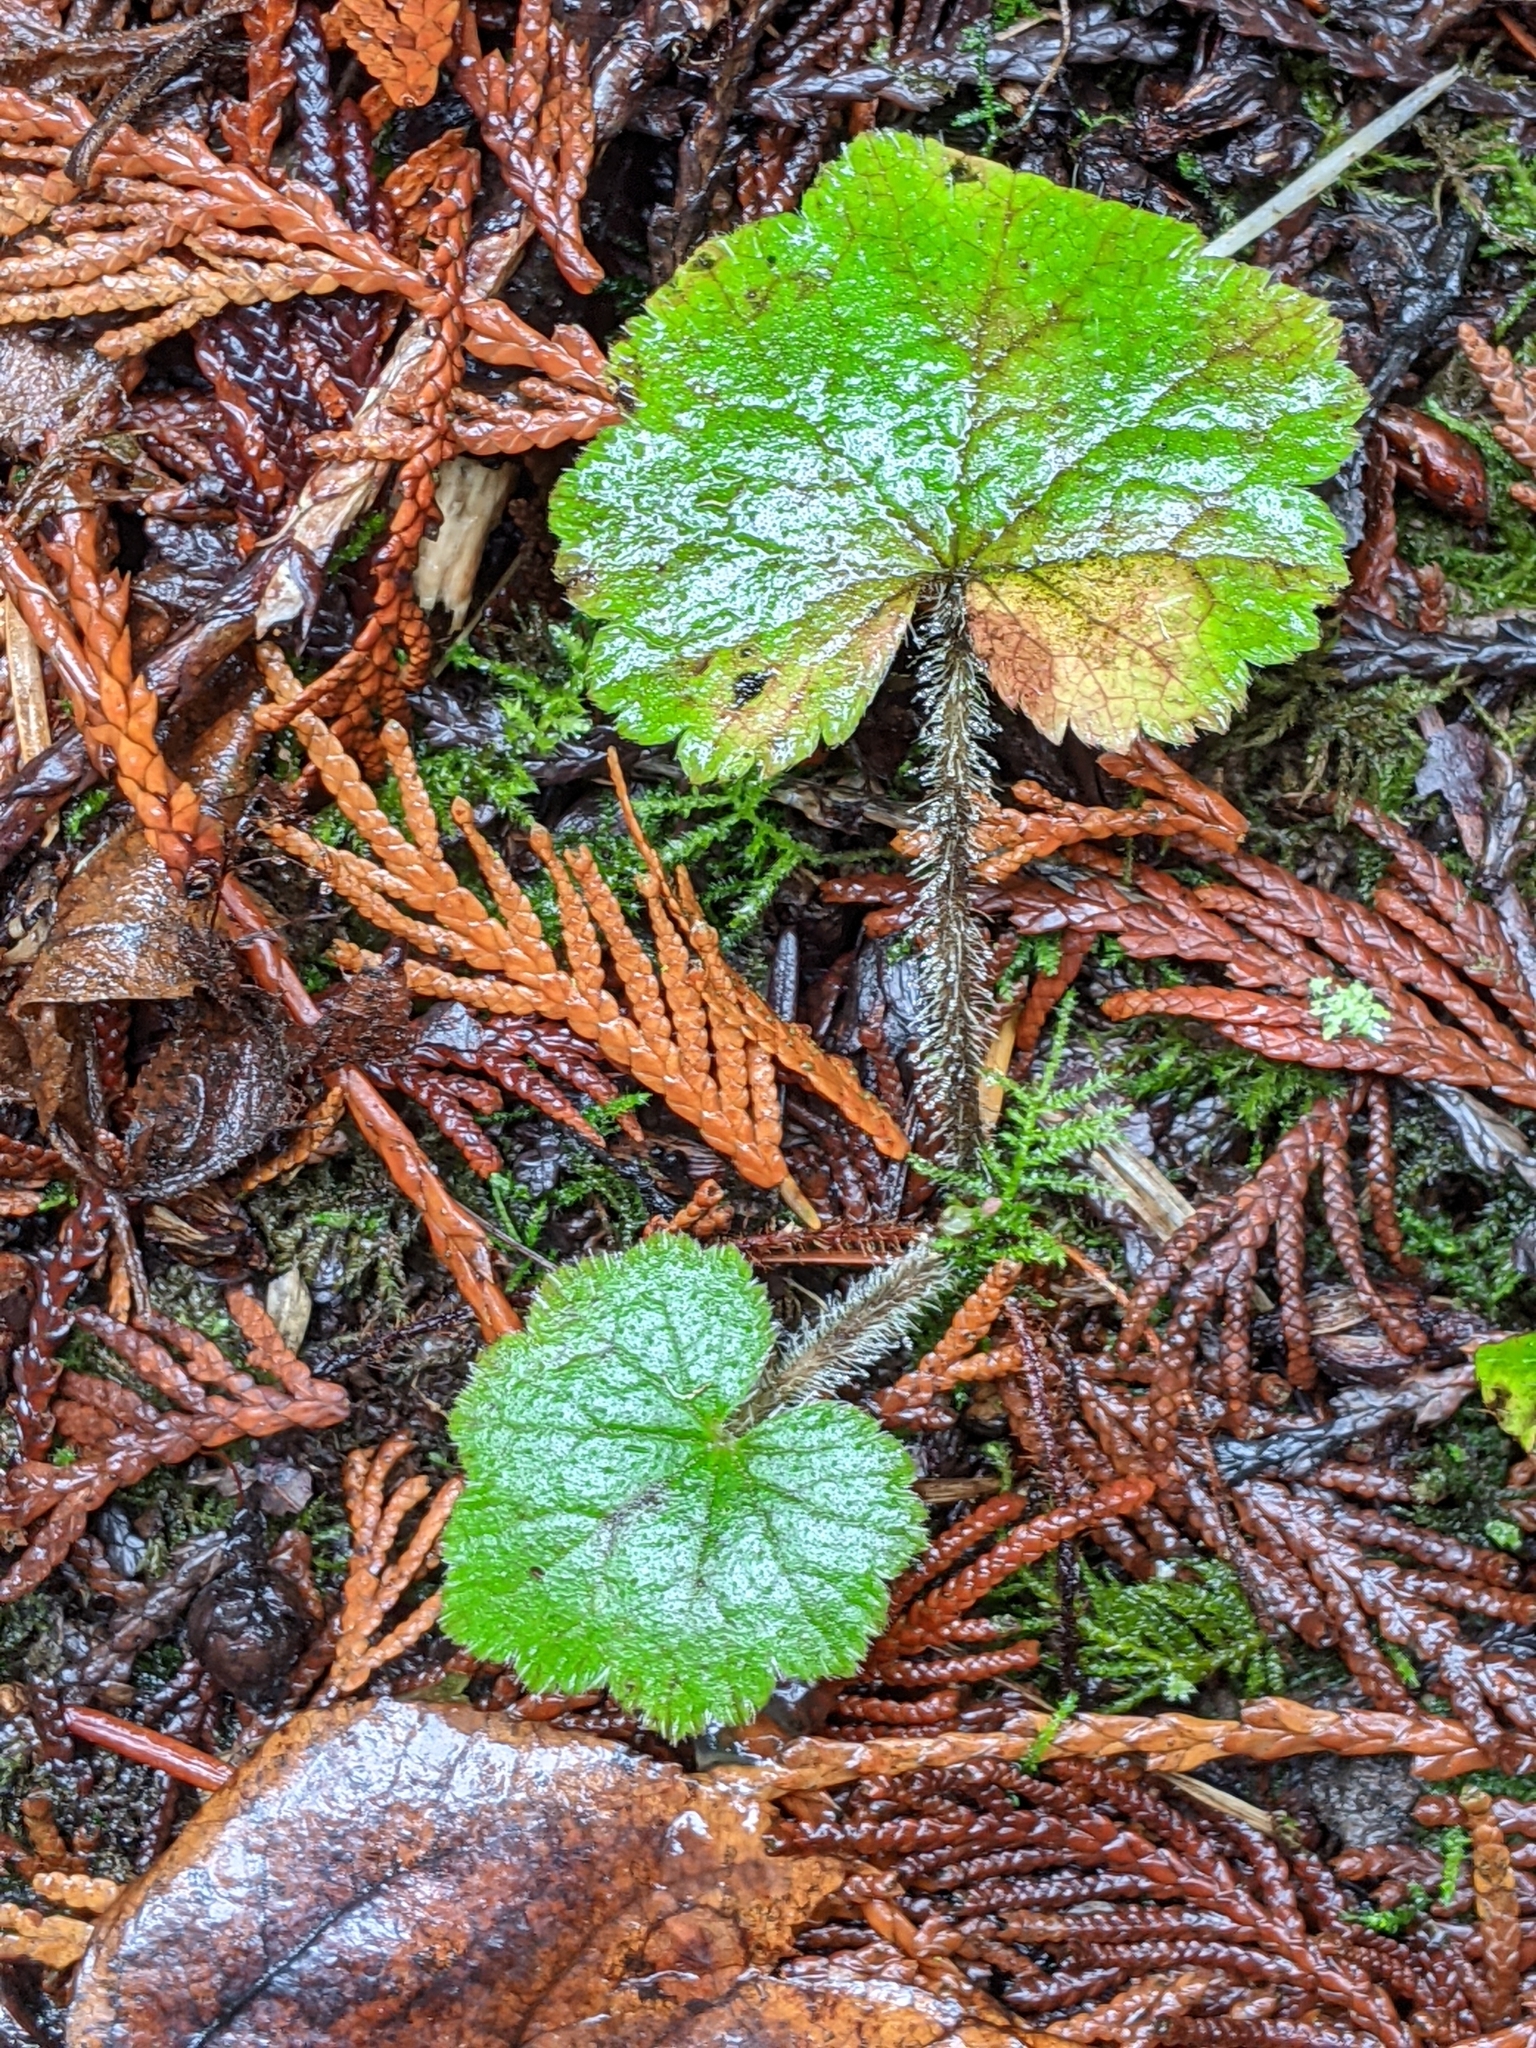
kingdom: Plantae
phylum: Tracheophyta
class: Magnoliopsida
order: Saxifragales
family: Saxifragaceae
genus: Tellima
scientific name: Tellima grandiflora
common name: Fringecups
